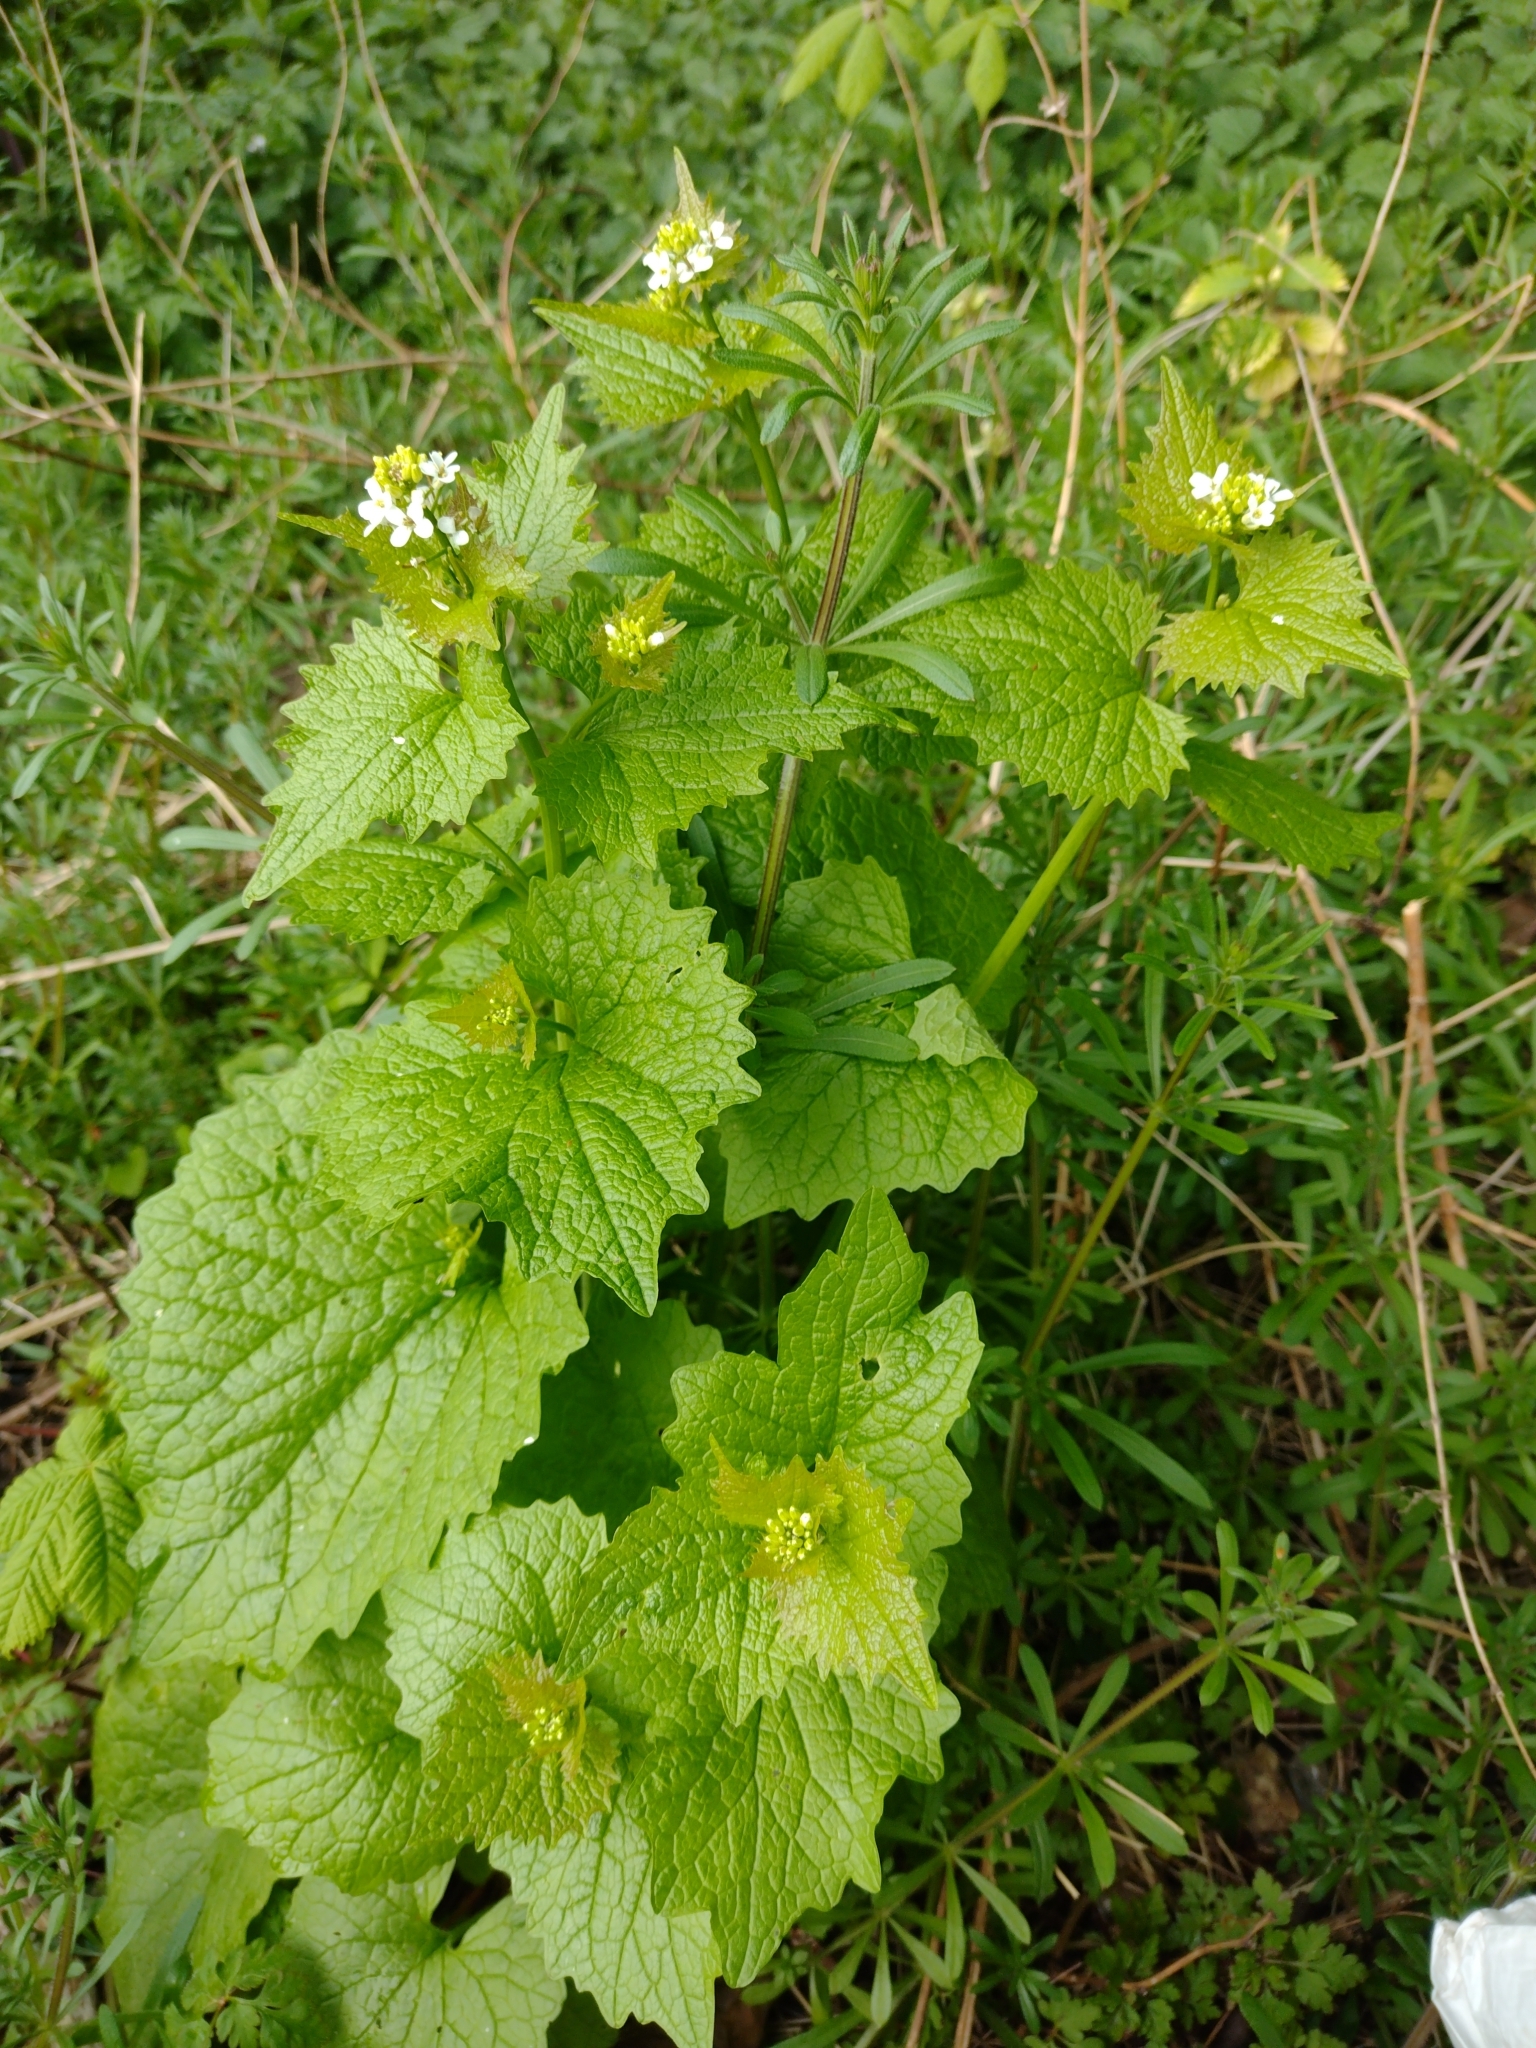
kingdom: Plantae
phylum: Tracheophyta
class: Magnoliopsida
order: Brassicales
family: Brassicaceae
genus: Alliaria
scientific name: Alliaria petiolata
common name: Garlic mustard
